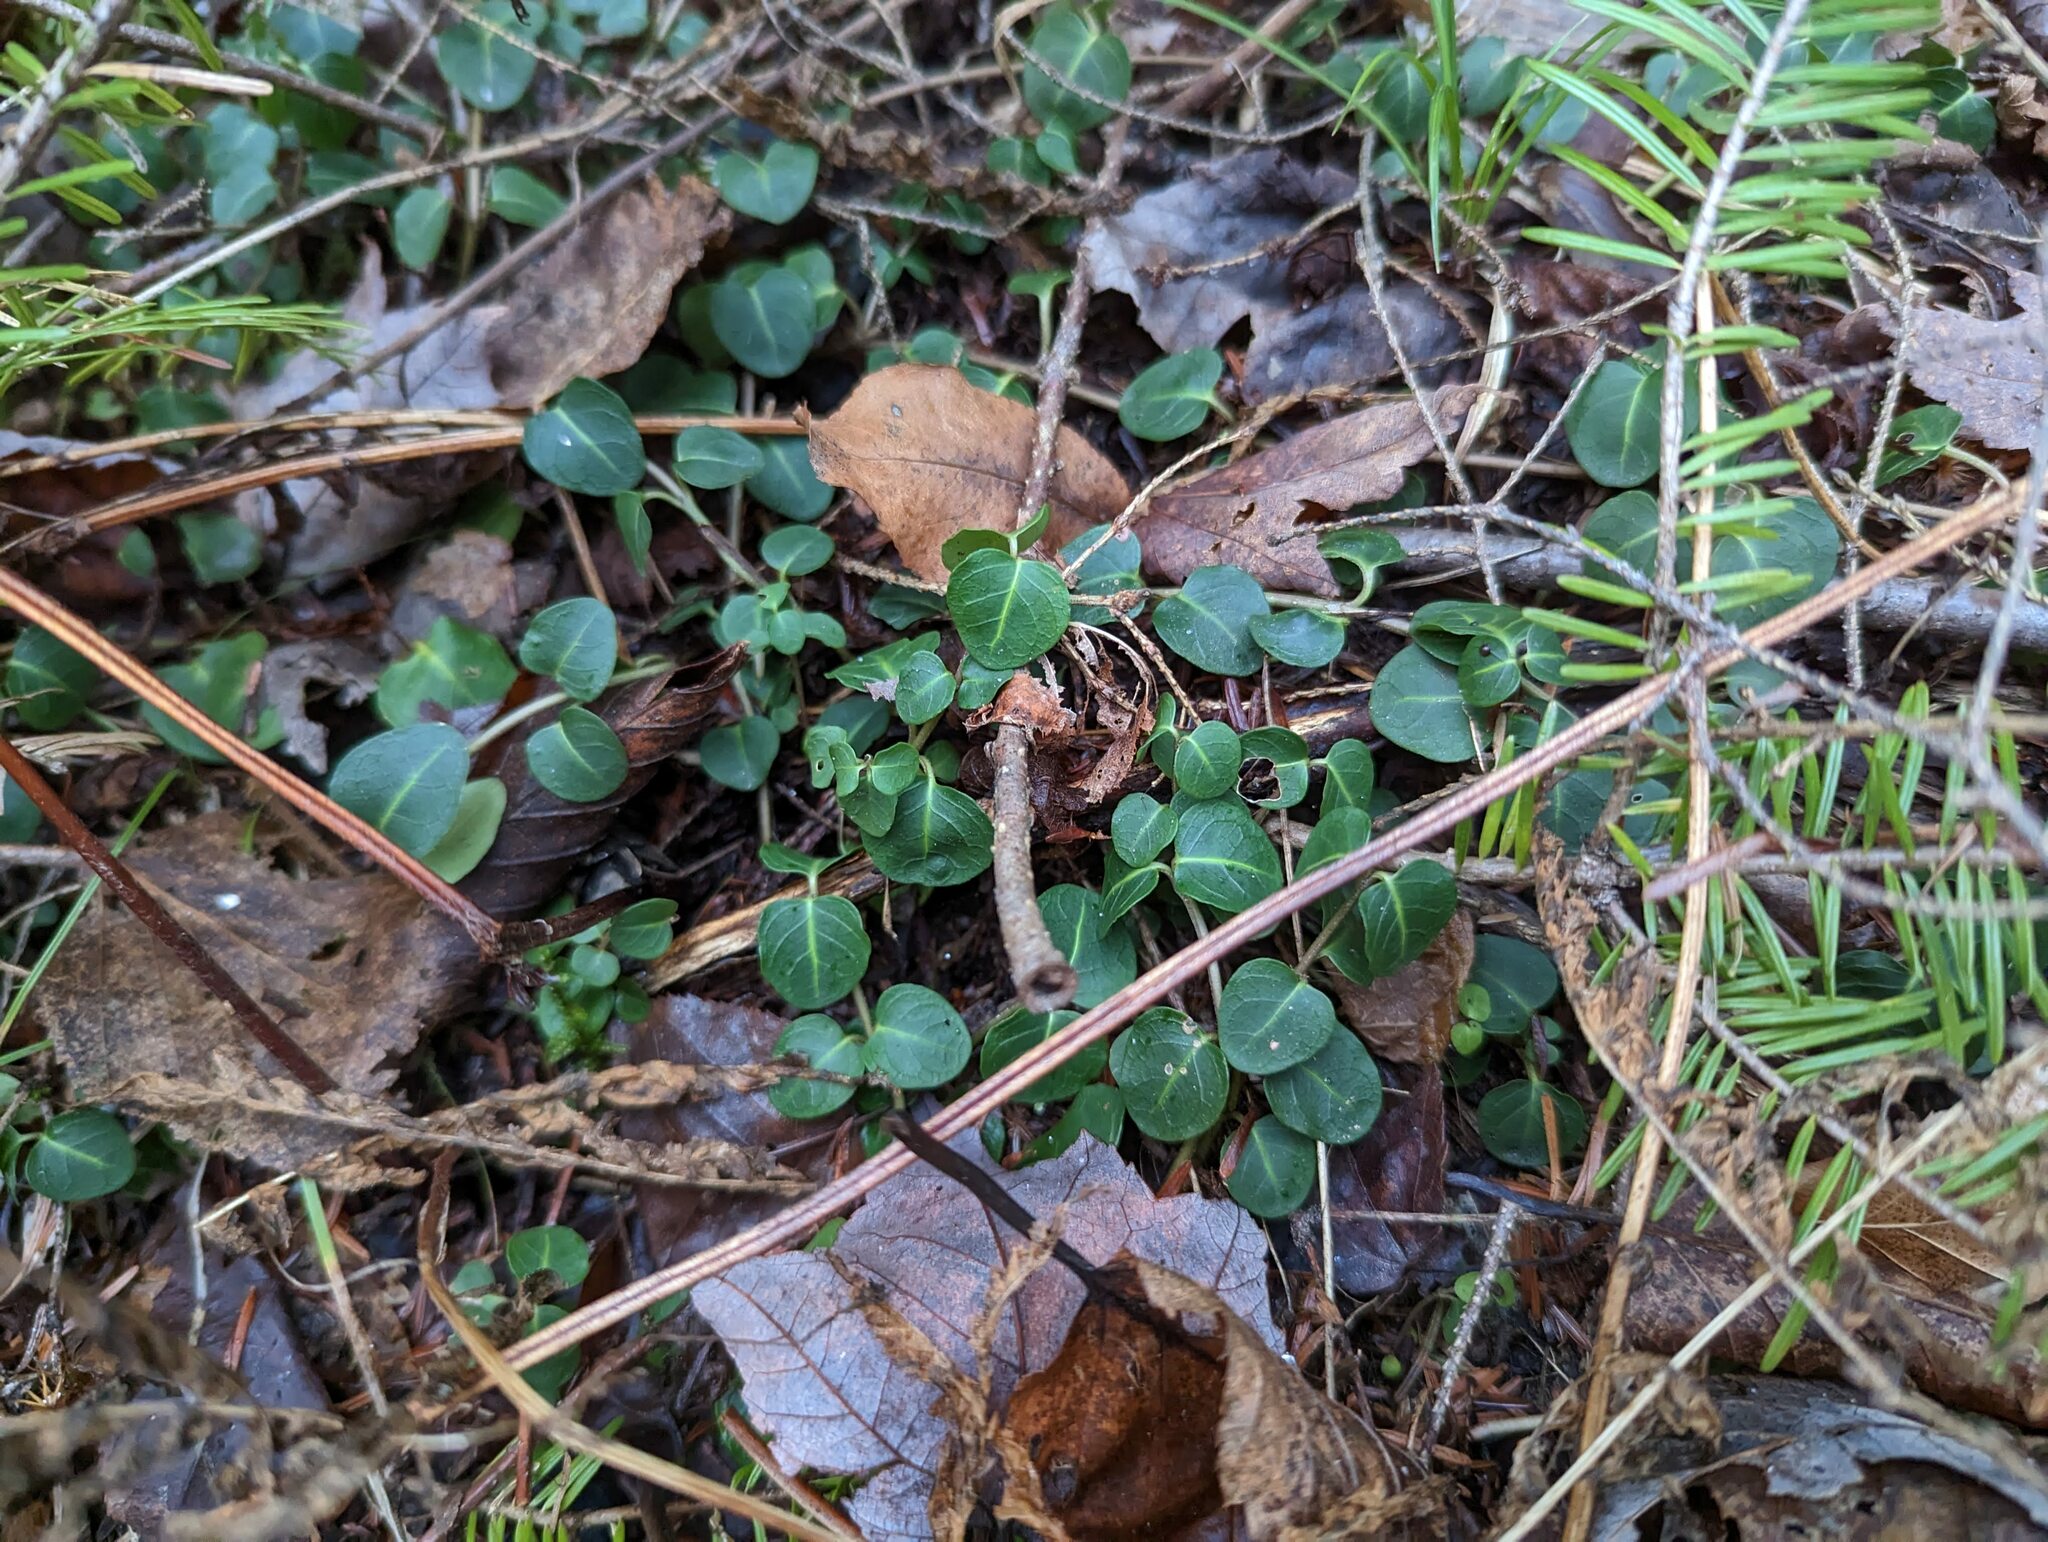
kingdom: Plantae
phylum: Tracheophyta
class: Magnoliopsida
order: Gentianales
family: Rubiaceae
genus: Mitchella
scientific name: Mitchella repens
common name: Partridge-berry
